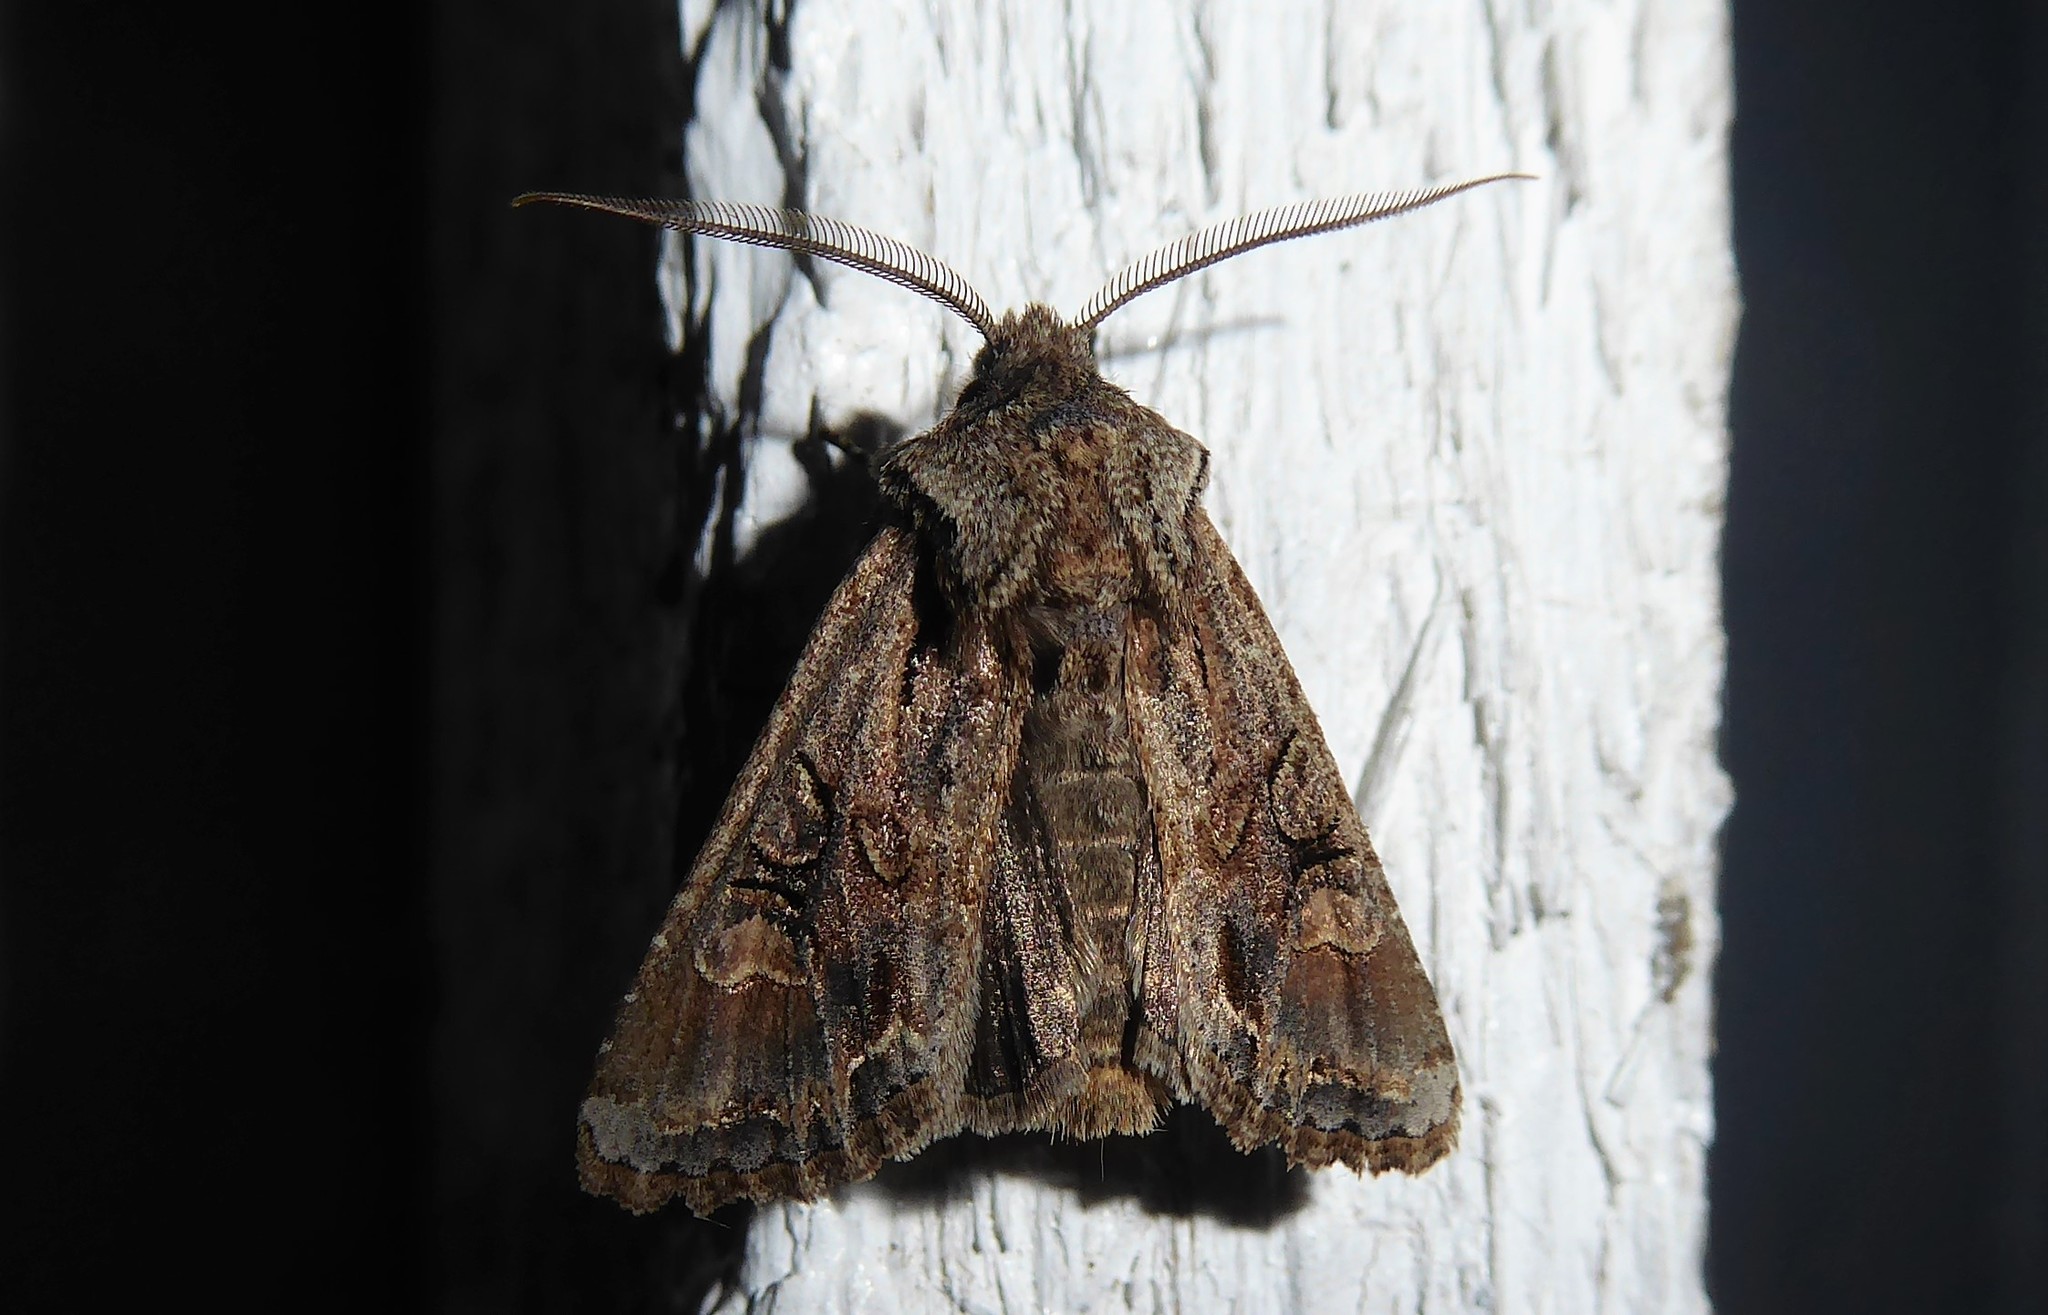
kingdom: Animalia
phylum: Arthropoda
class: Insecta
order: Lepidoptera
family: Noctuidae
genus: Ichneutica
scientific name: Ichneutica skelloni
